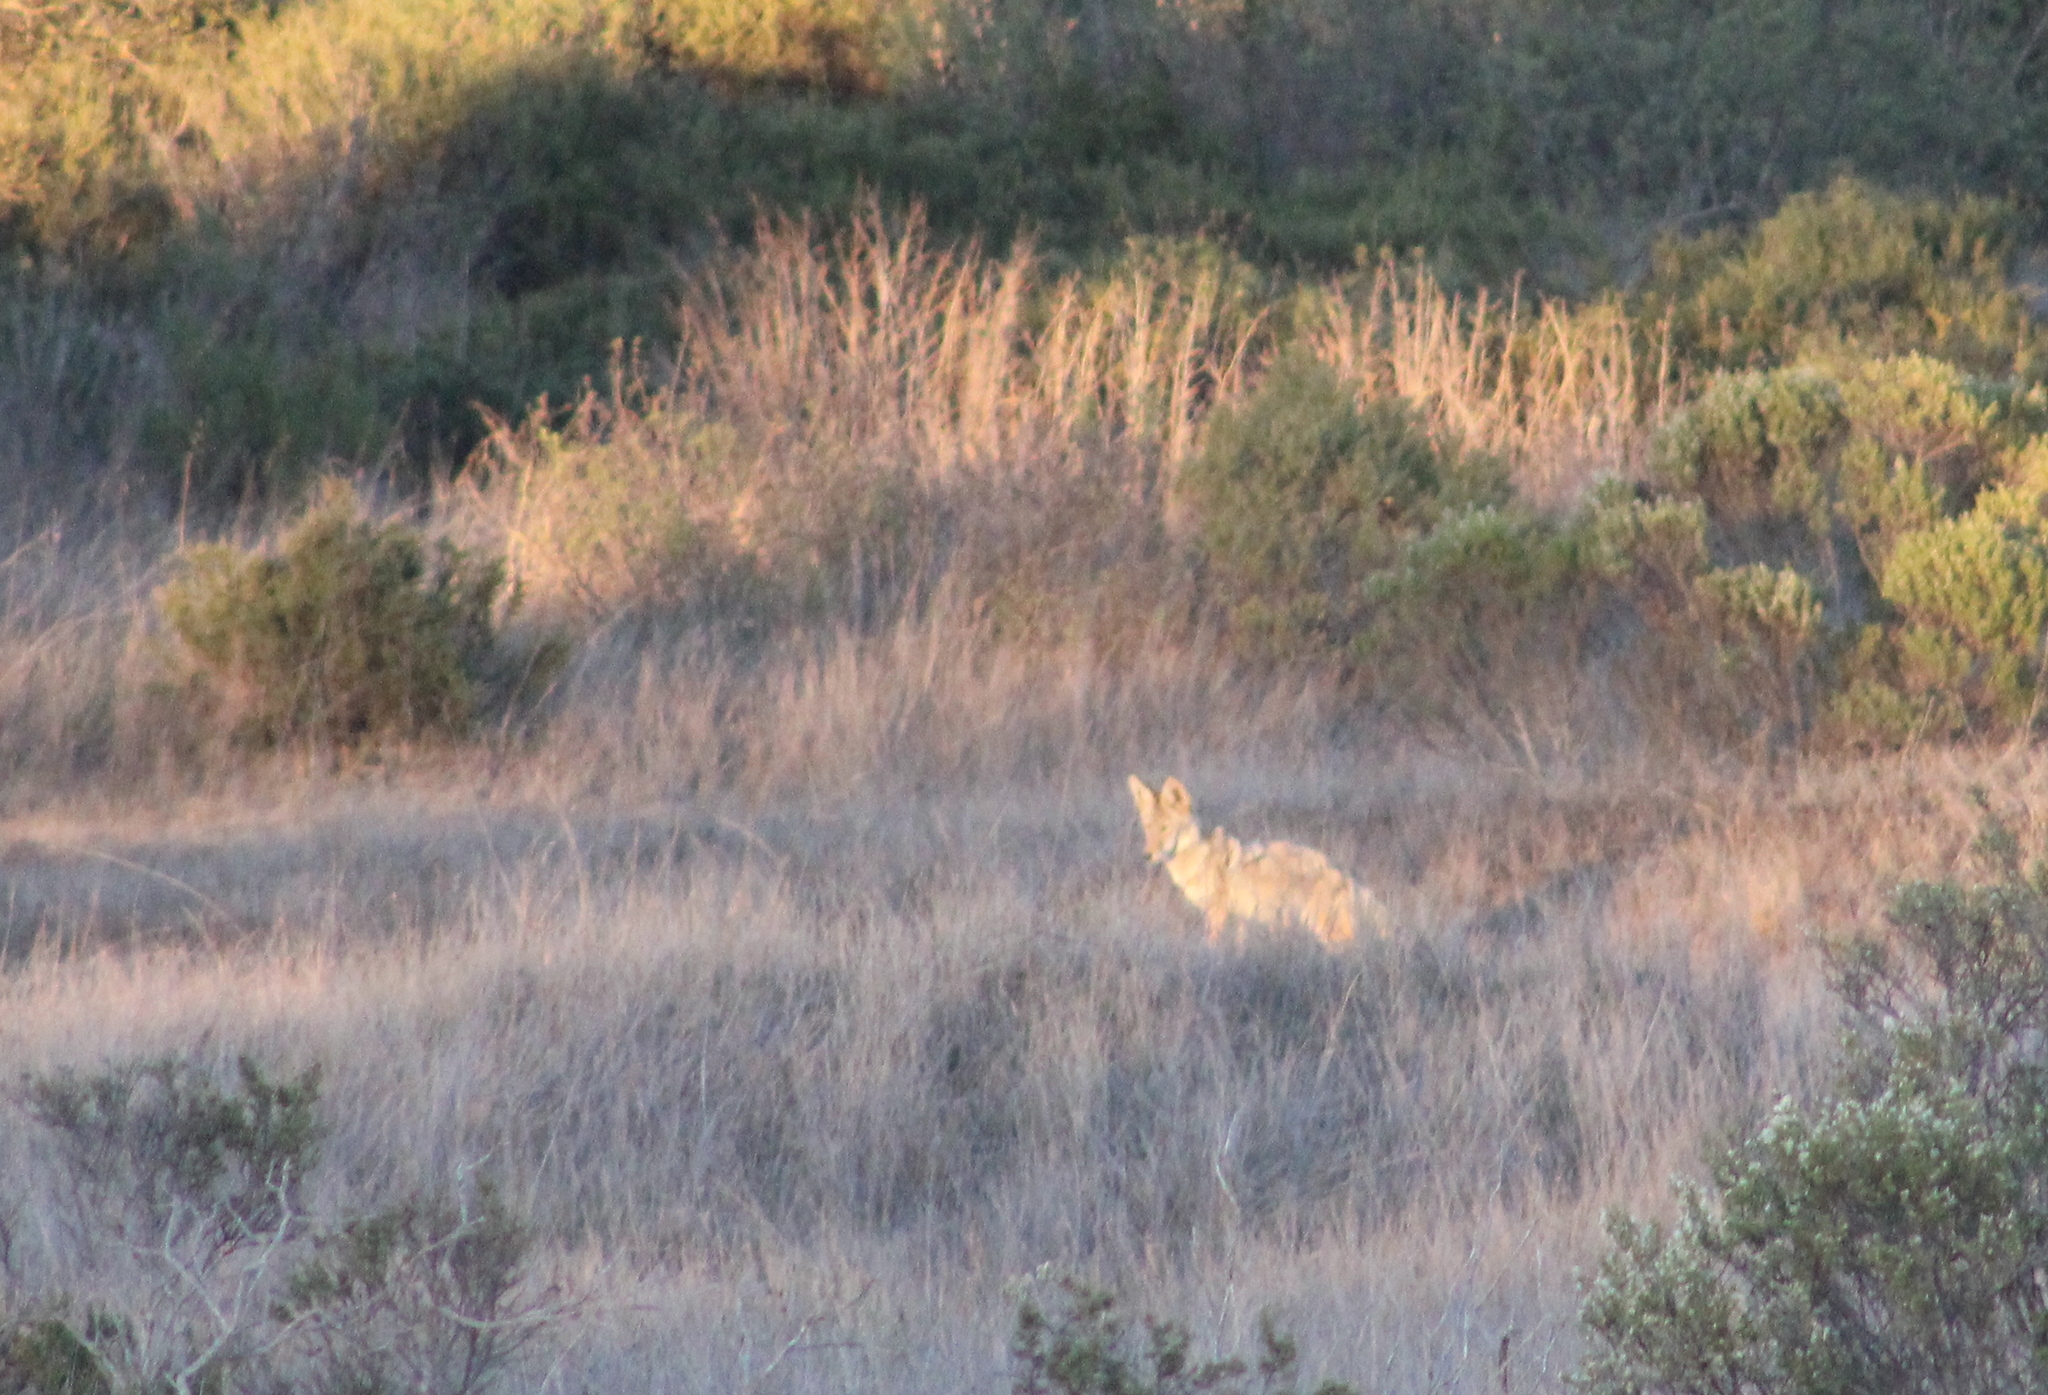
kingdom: Animalia
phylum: Chordata
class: Mammalia
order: Carnivora
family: Canidae
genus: Canis
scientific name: Canis latrans
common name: Coyote
